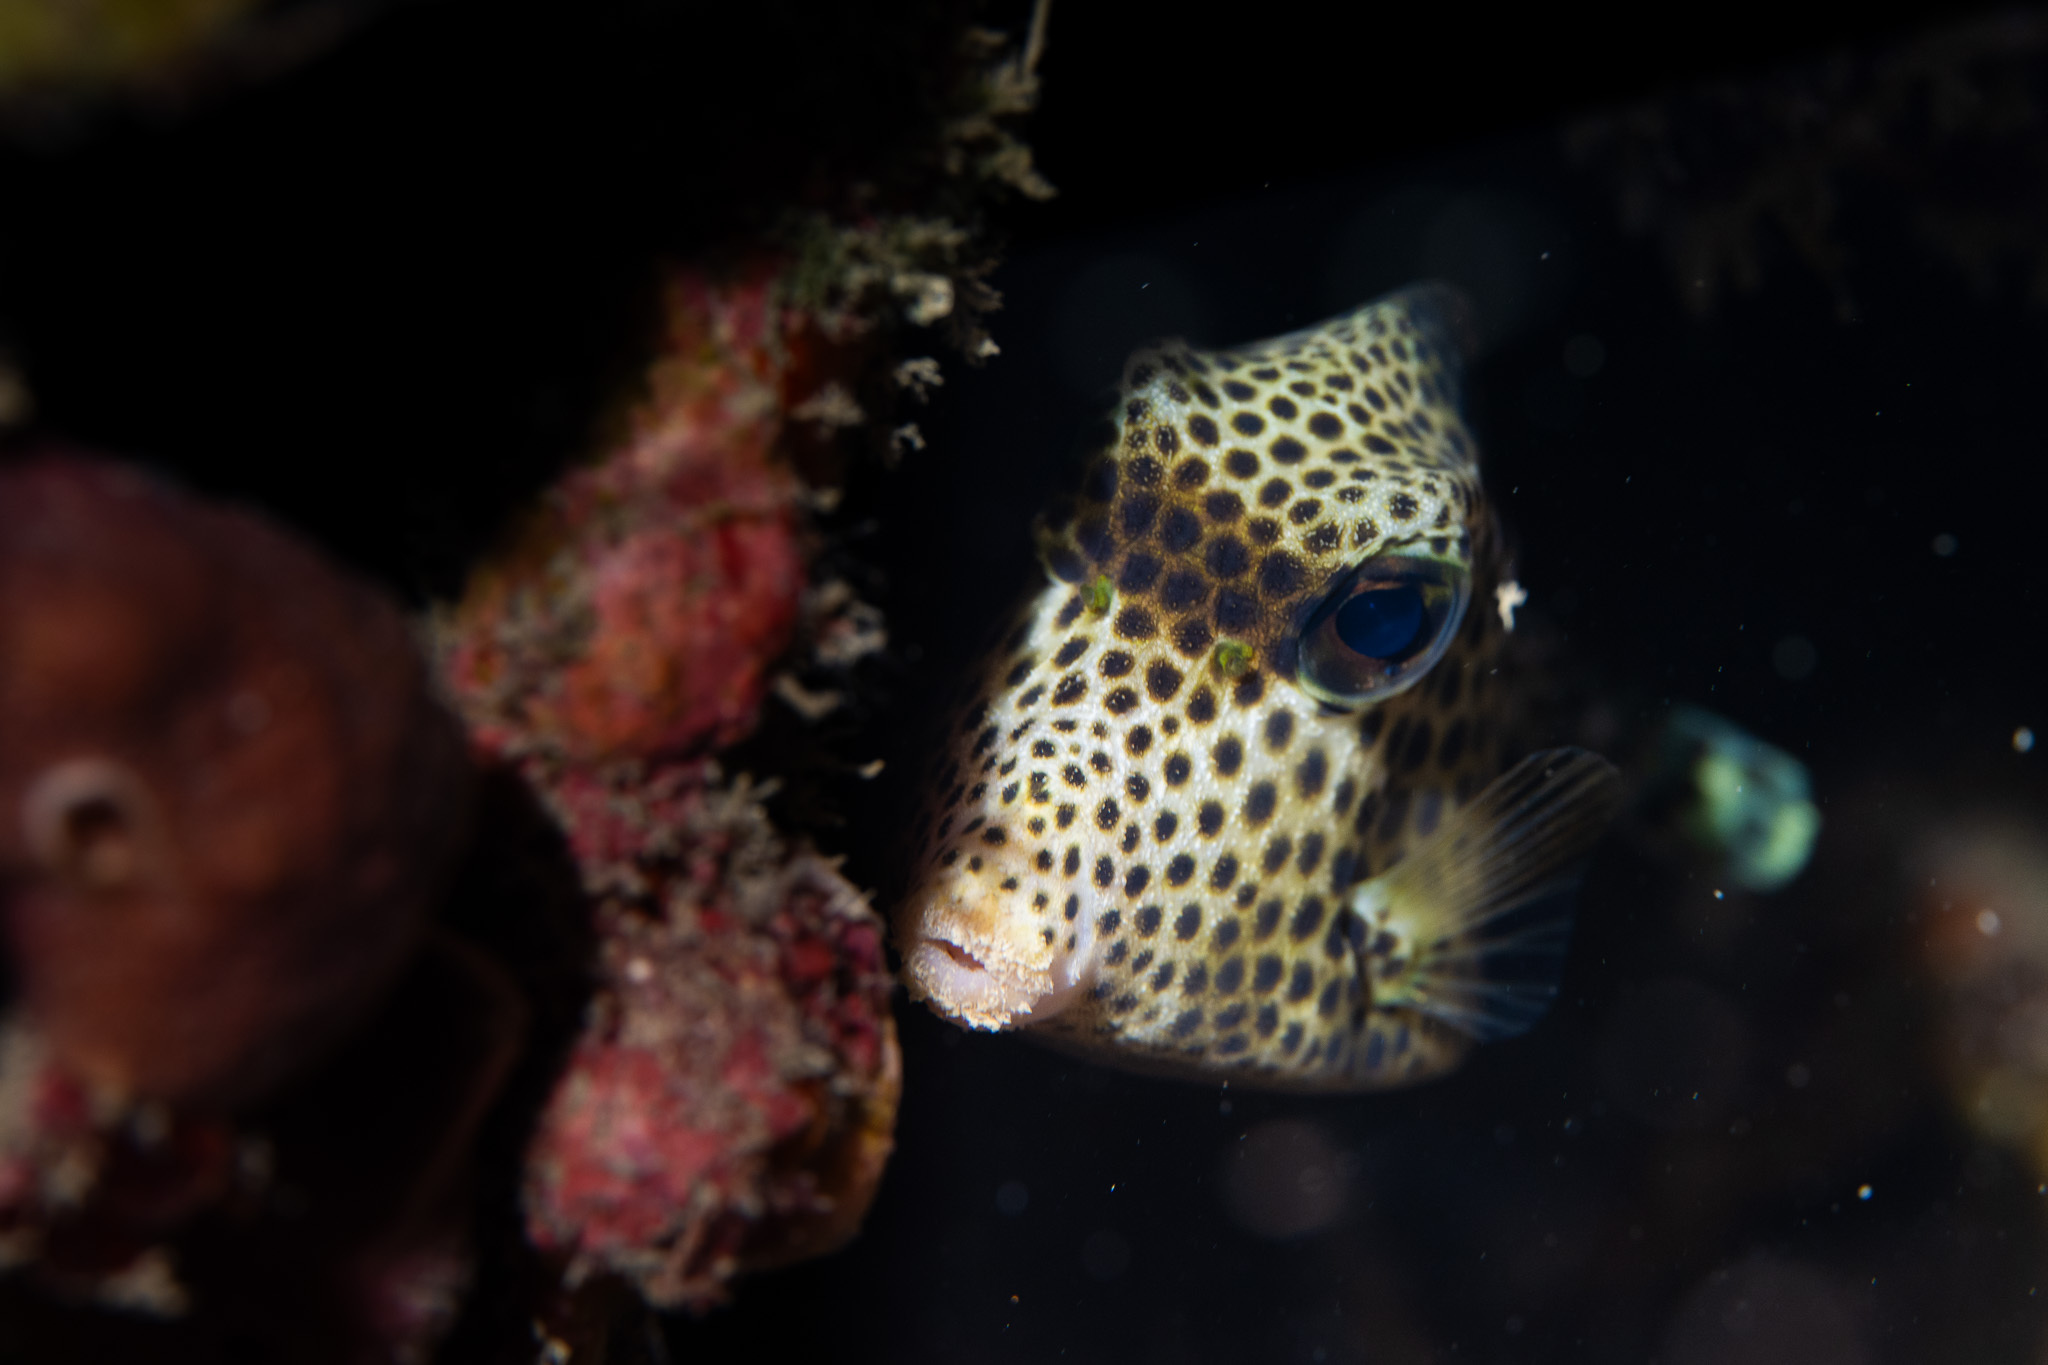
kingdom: Animalia
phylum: Chordata
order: Tetraodontiformes
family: Ostraciidae
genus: Lactophrys
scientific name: Lactophrys bicaudalis
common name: Spotted trunkfish
